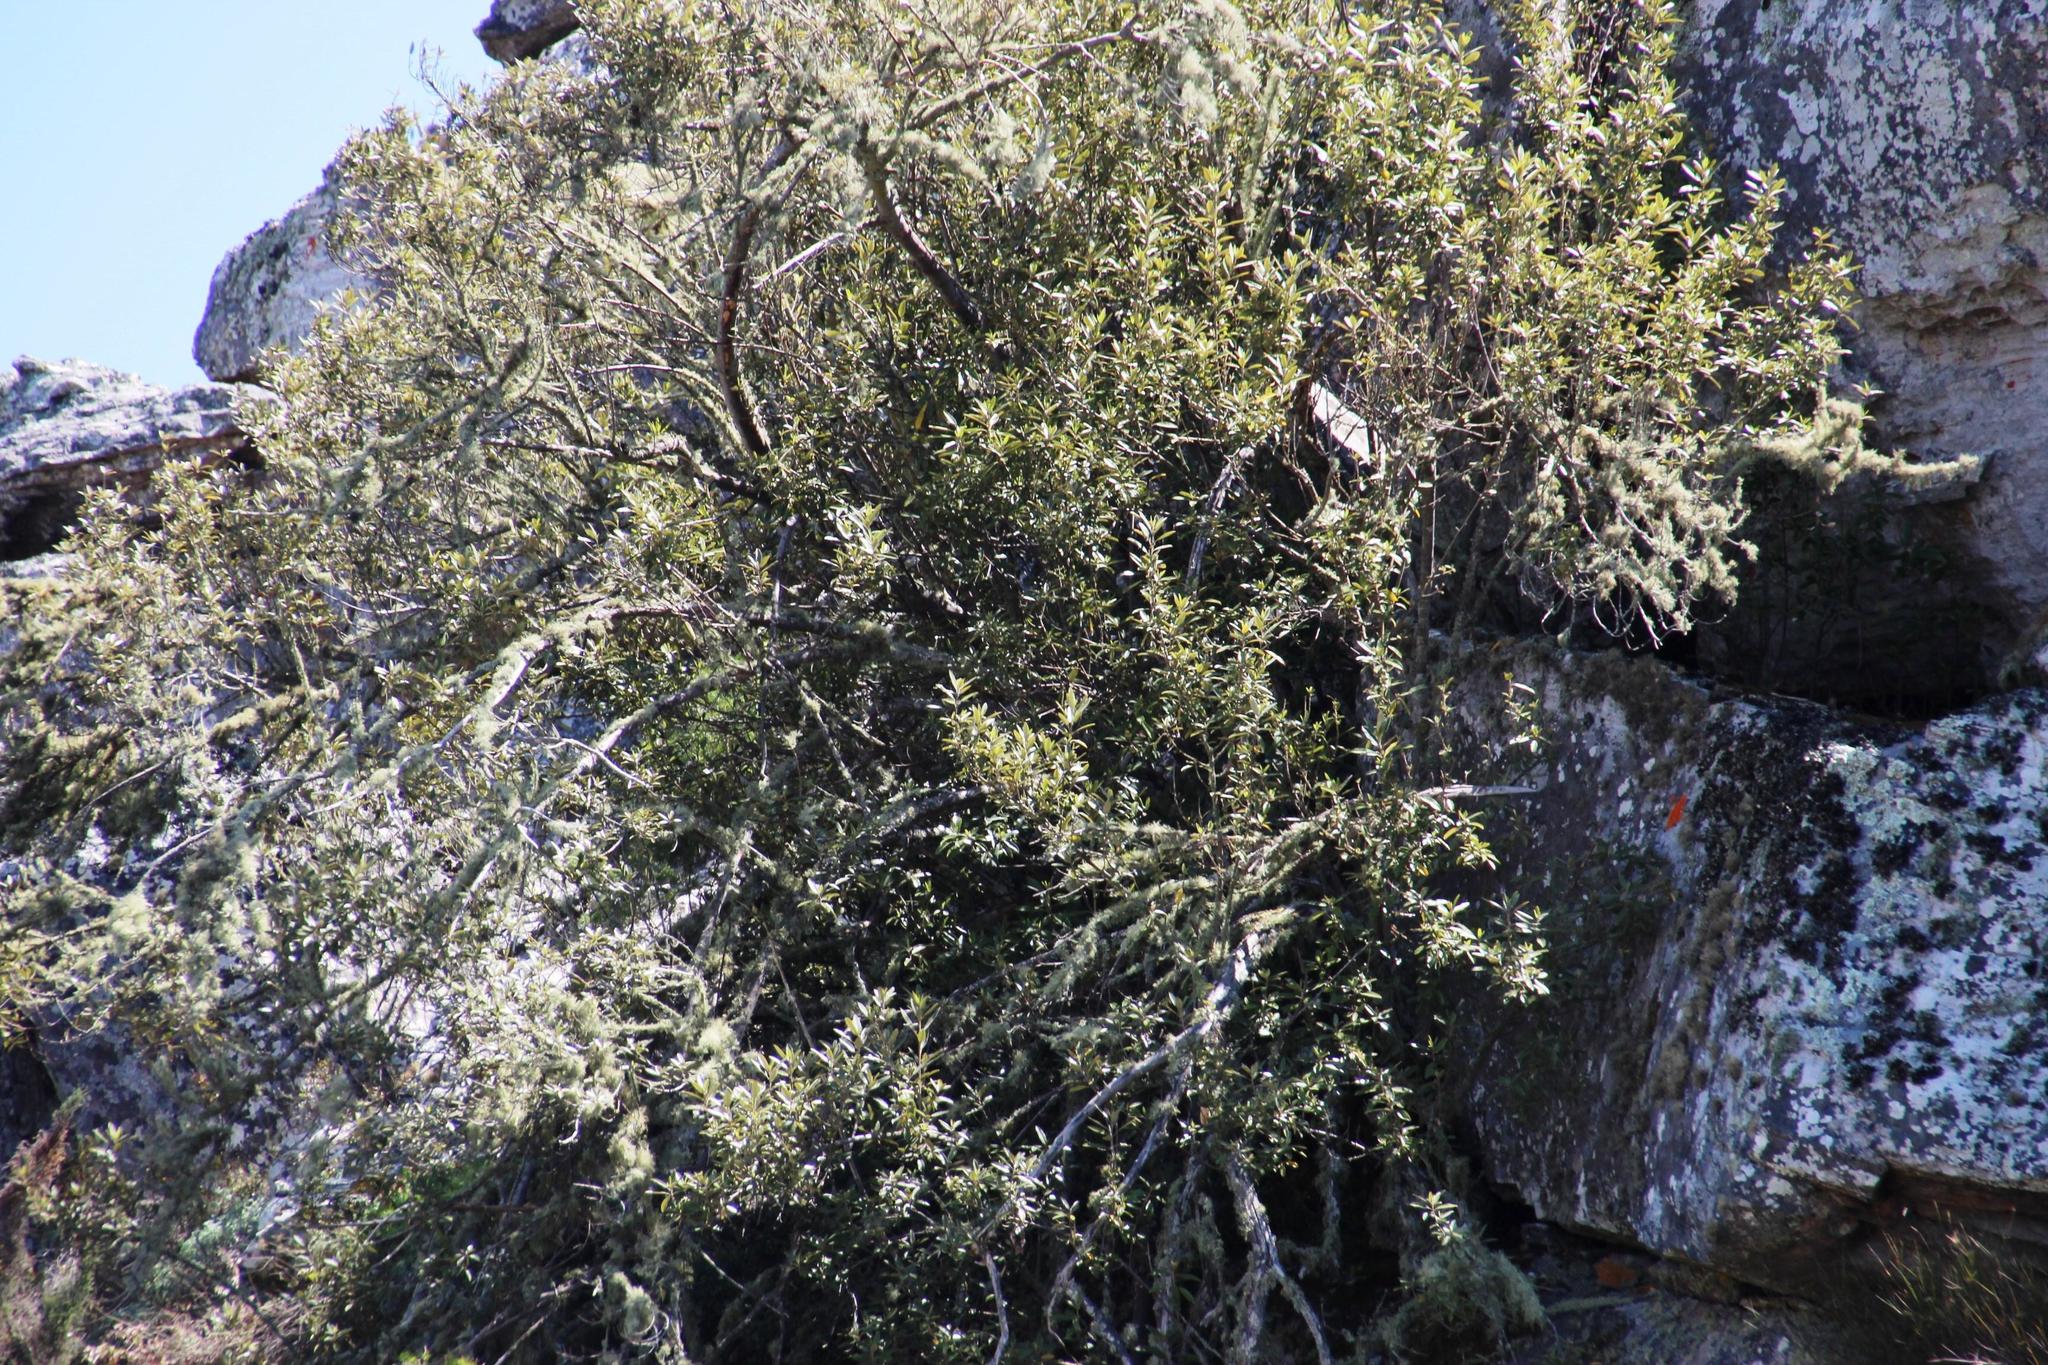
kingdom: Plantae
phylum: Tracheophyta
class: Magnoliopsida
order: Malpighiales
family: Achariaceae
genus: Kiggelaria
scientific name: Kiggelaria africana
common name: Wild peach
